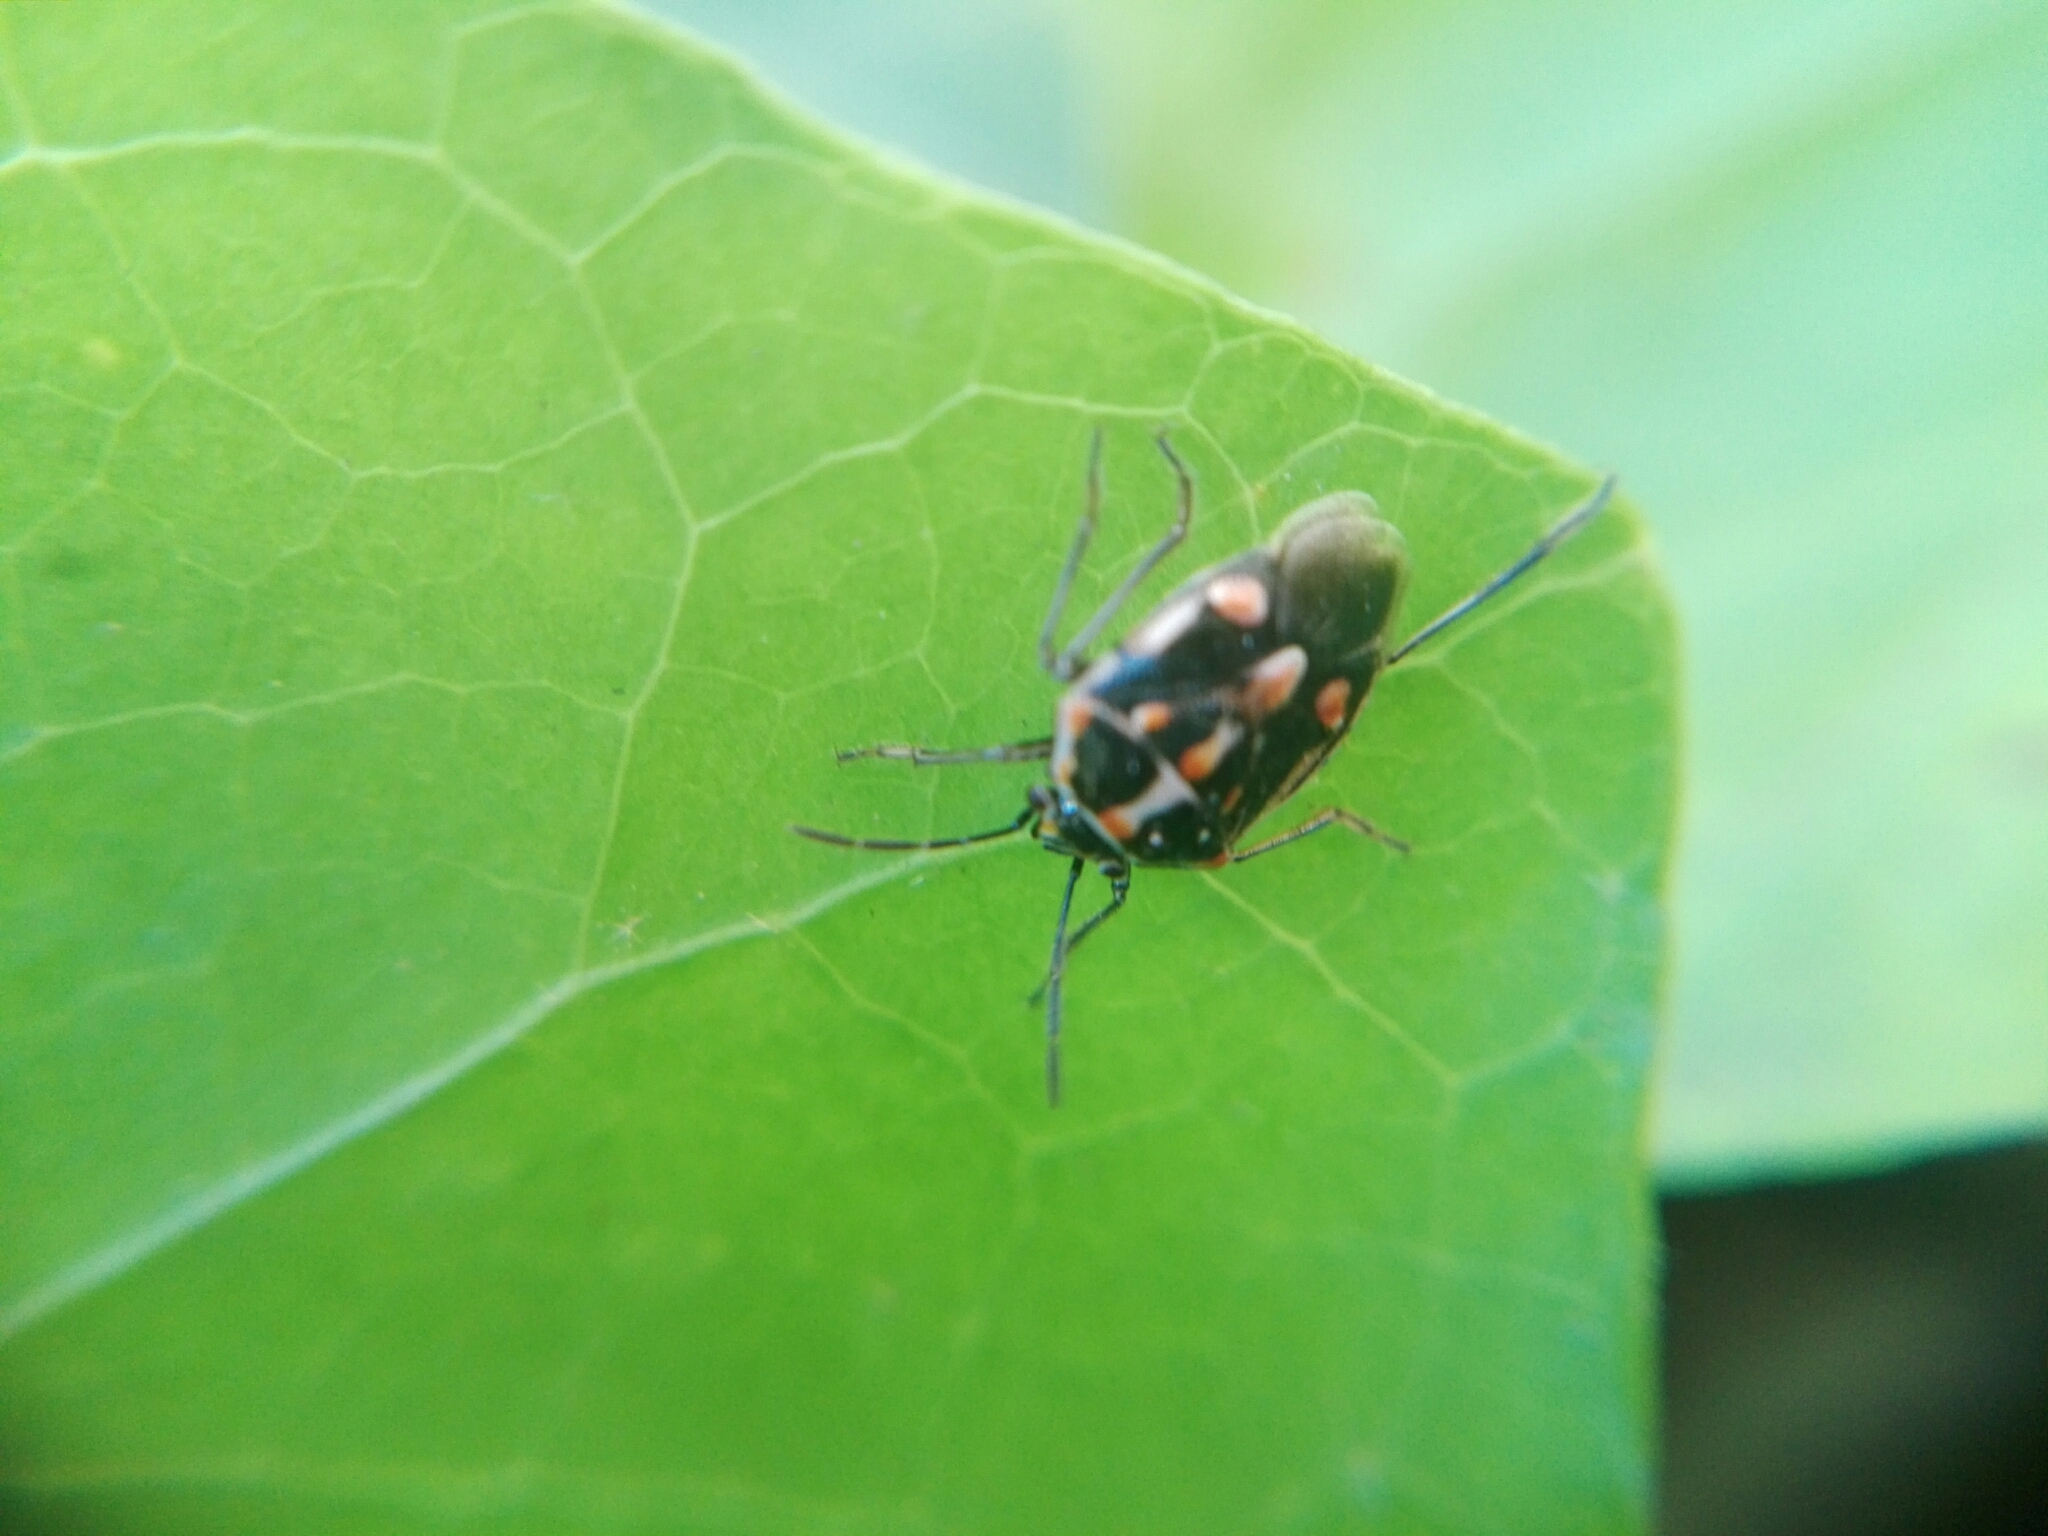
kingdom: Animalia
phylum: Arthropoda
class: Insecta
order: Hemiptera
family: Pentatomidae
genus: Bagrada
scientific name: Bagrada hilaris
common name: Bagrada bug
